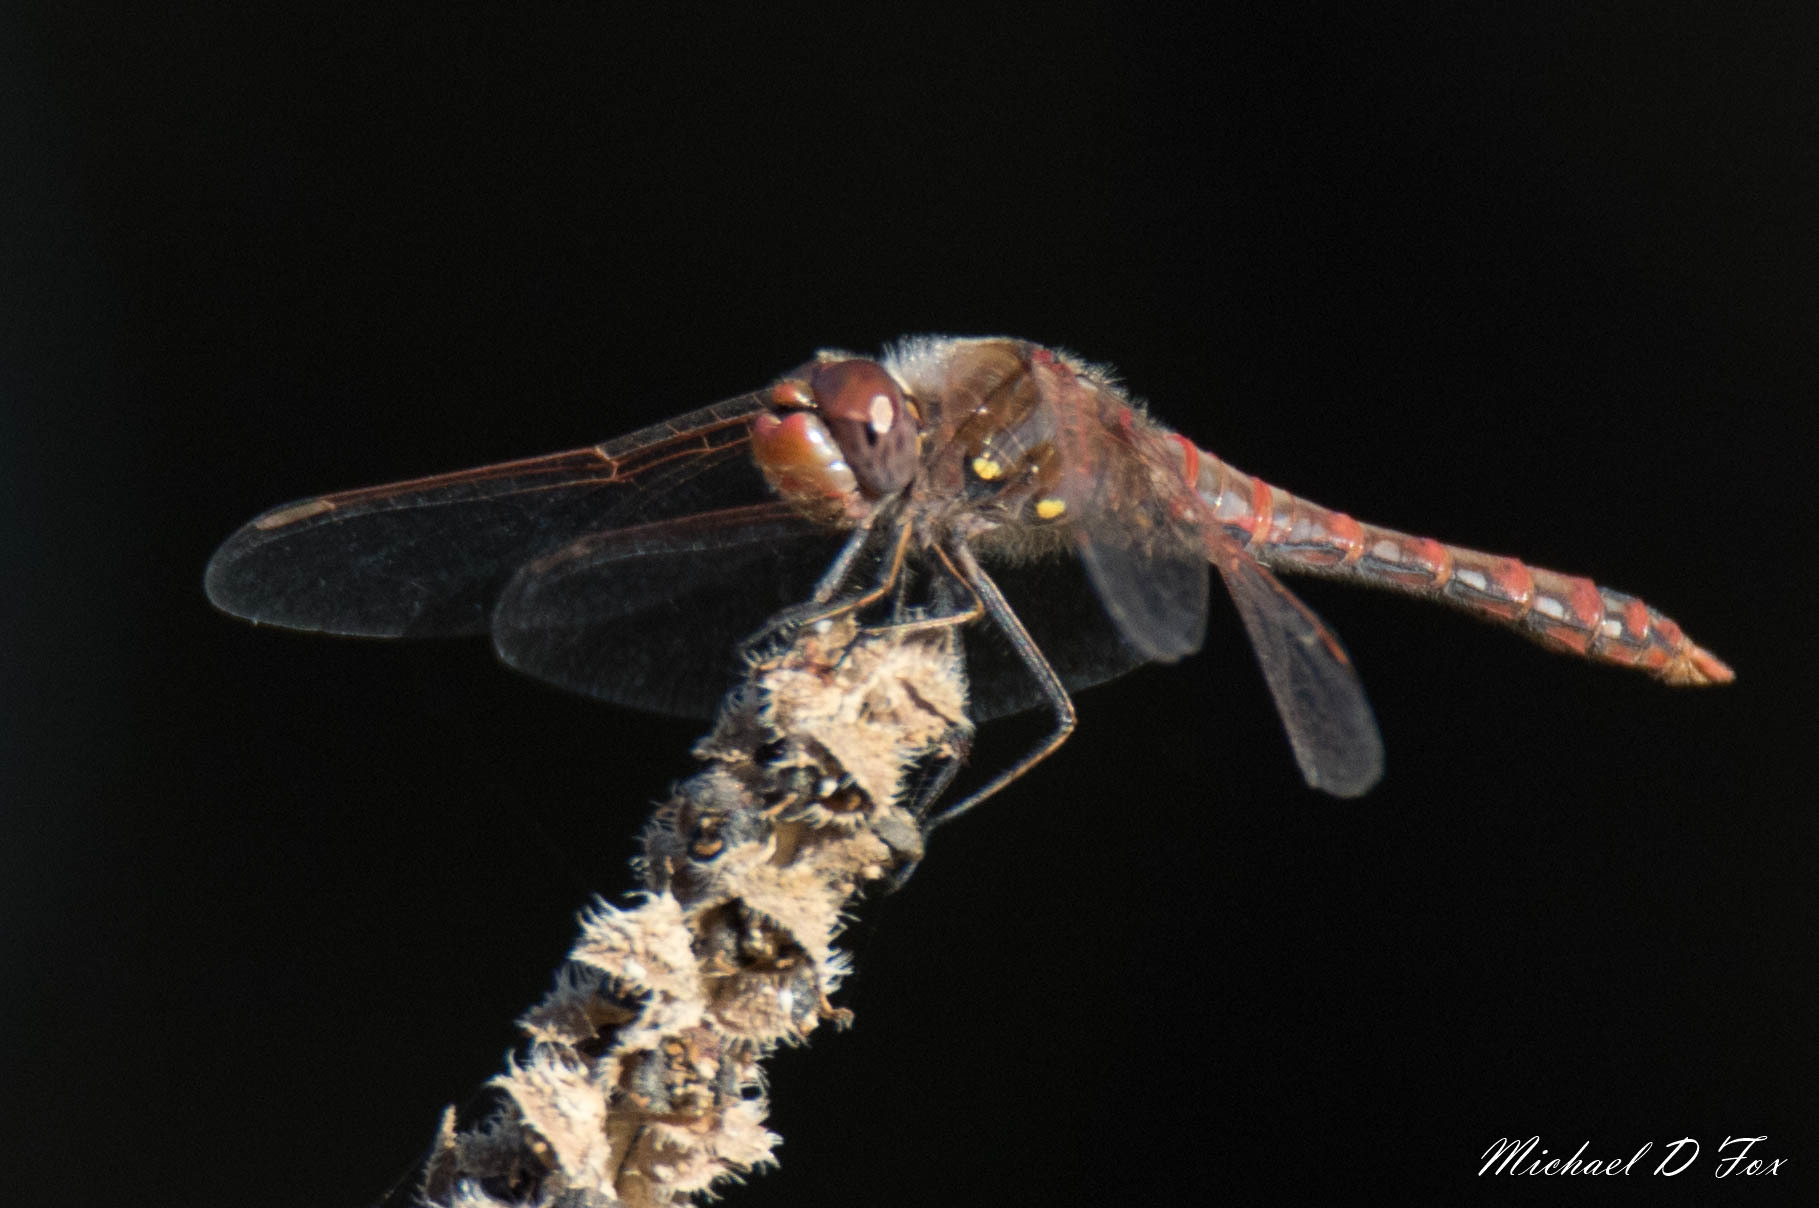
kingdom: Animalia
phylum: Arthropoda
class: Insecta
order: Odonata
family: Libellulidae
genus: Sympetrum
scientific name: Sympetrum corruptum
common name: Variegated meadowhawk
